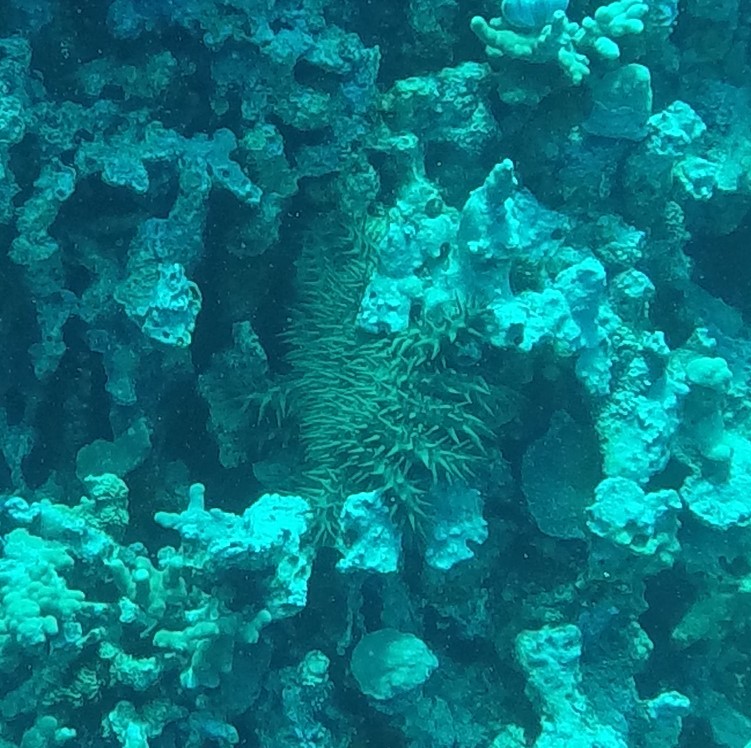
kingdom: Animalia
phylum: Echinodermata
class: Asteroidea
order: Valvatida
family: Acanthasteridae
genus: Acanthaster
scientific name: Acanthaster planci
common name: Crown-of-thorns
